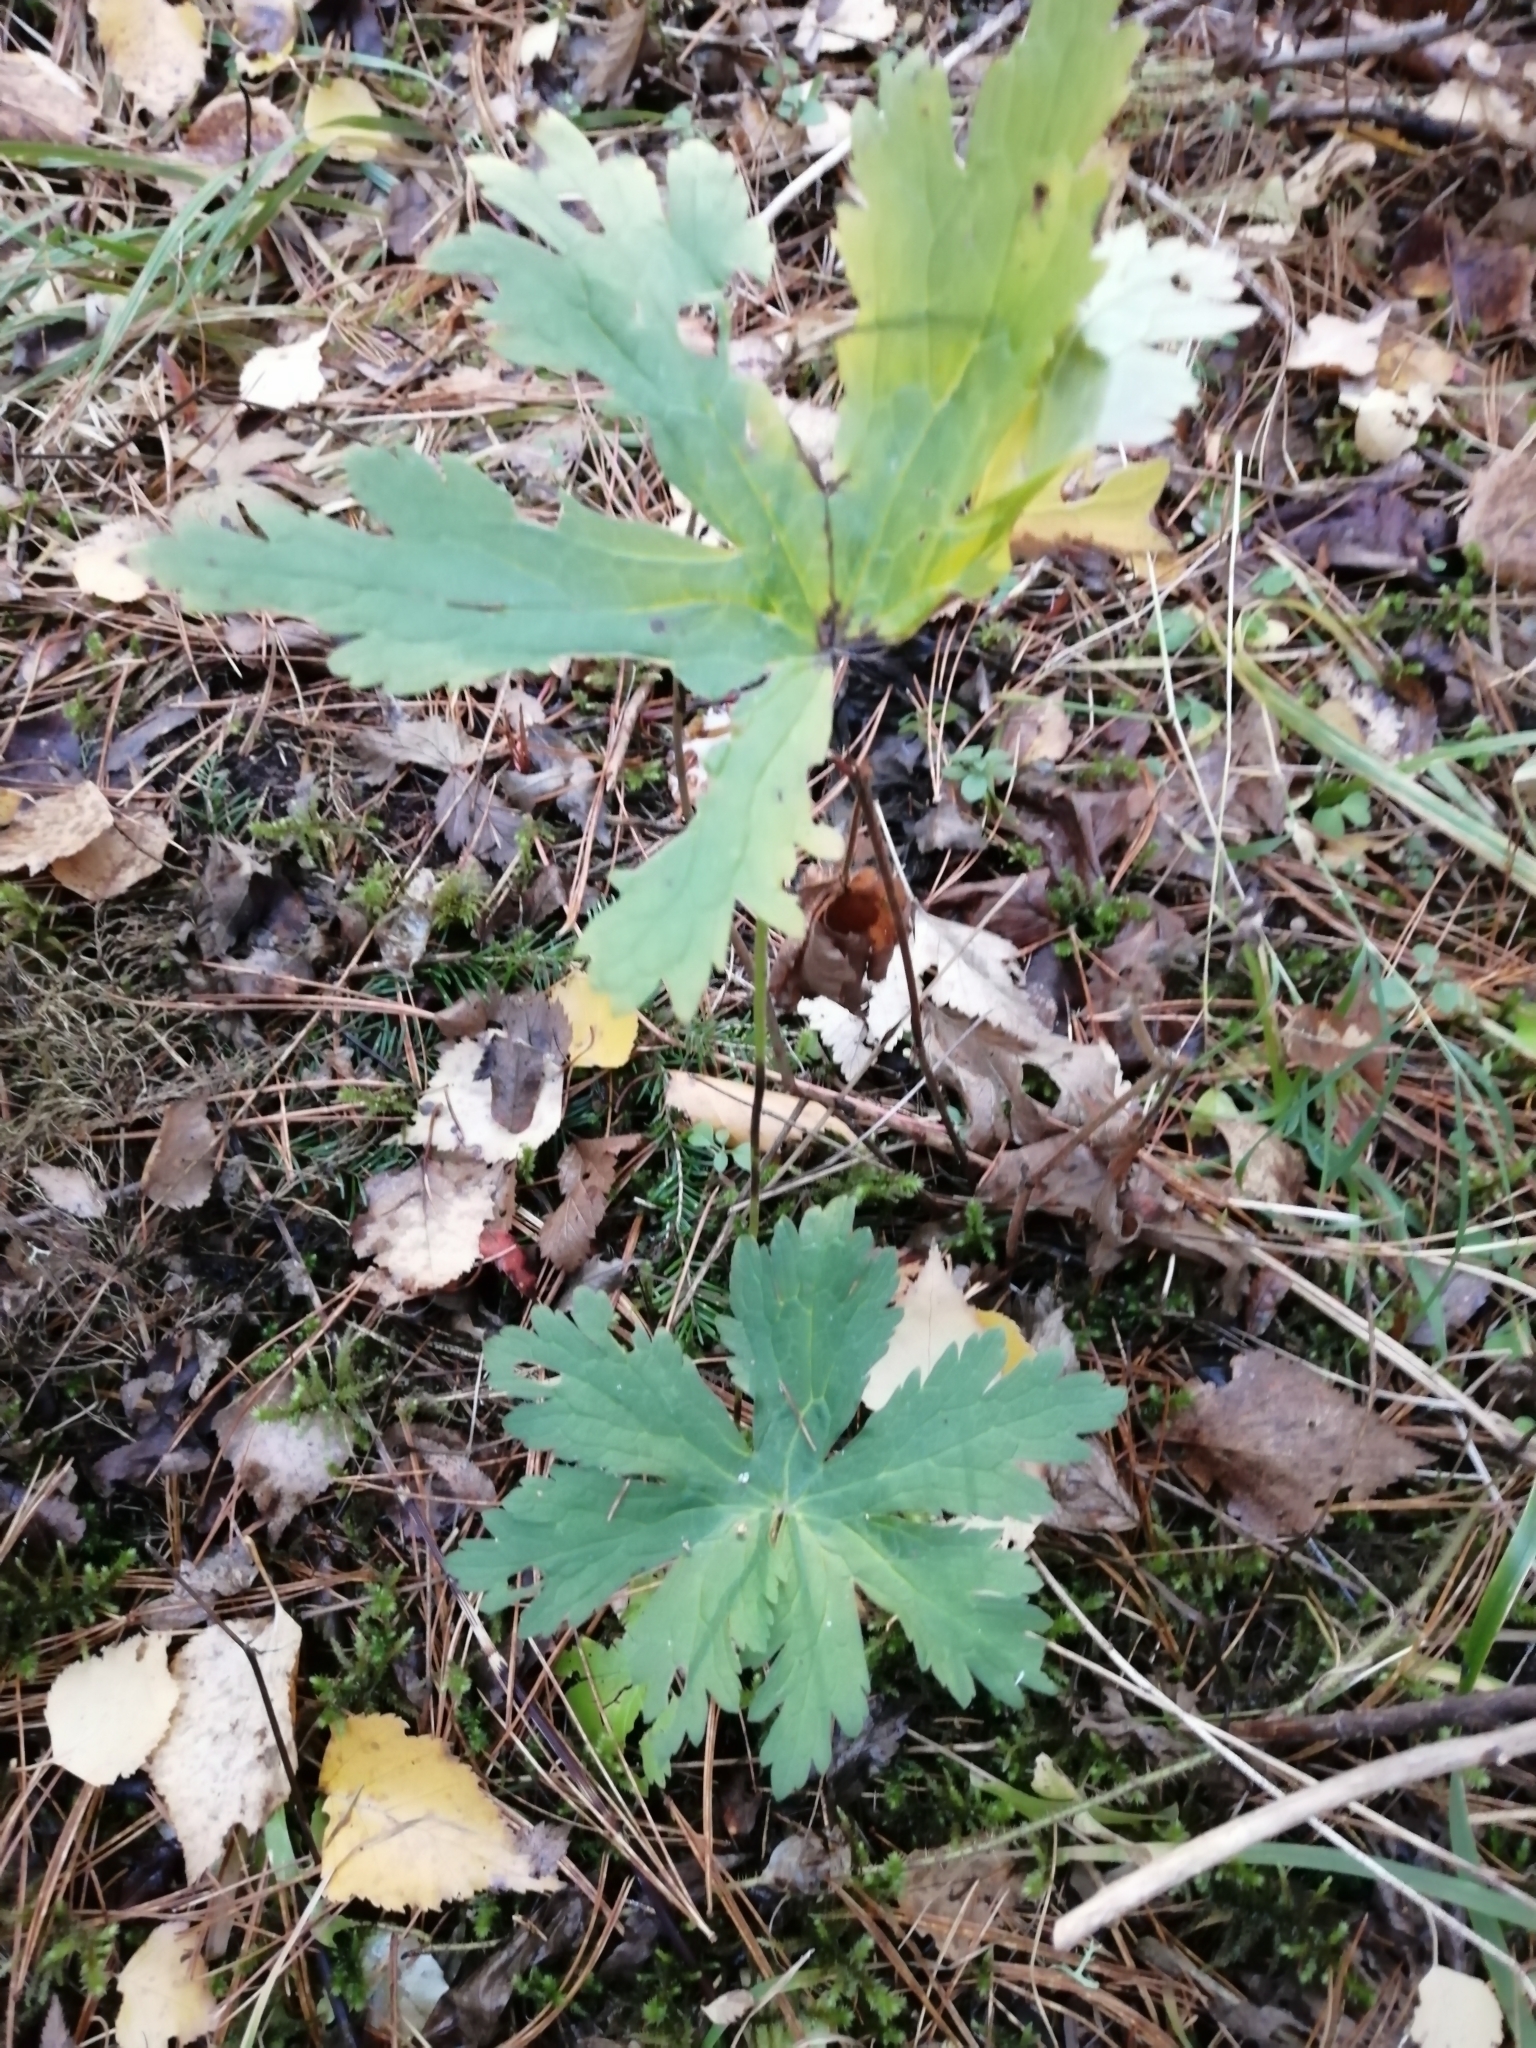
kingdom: Plantae
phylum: Tracheophyta
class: Magnoliopsida
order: Geraniales
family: Geraniaceae
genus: Geranium
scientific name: Geranium sylvaticum
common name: Wood crane's-bill
